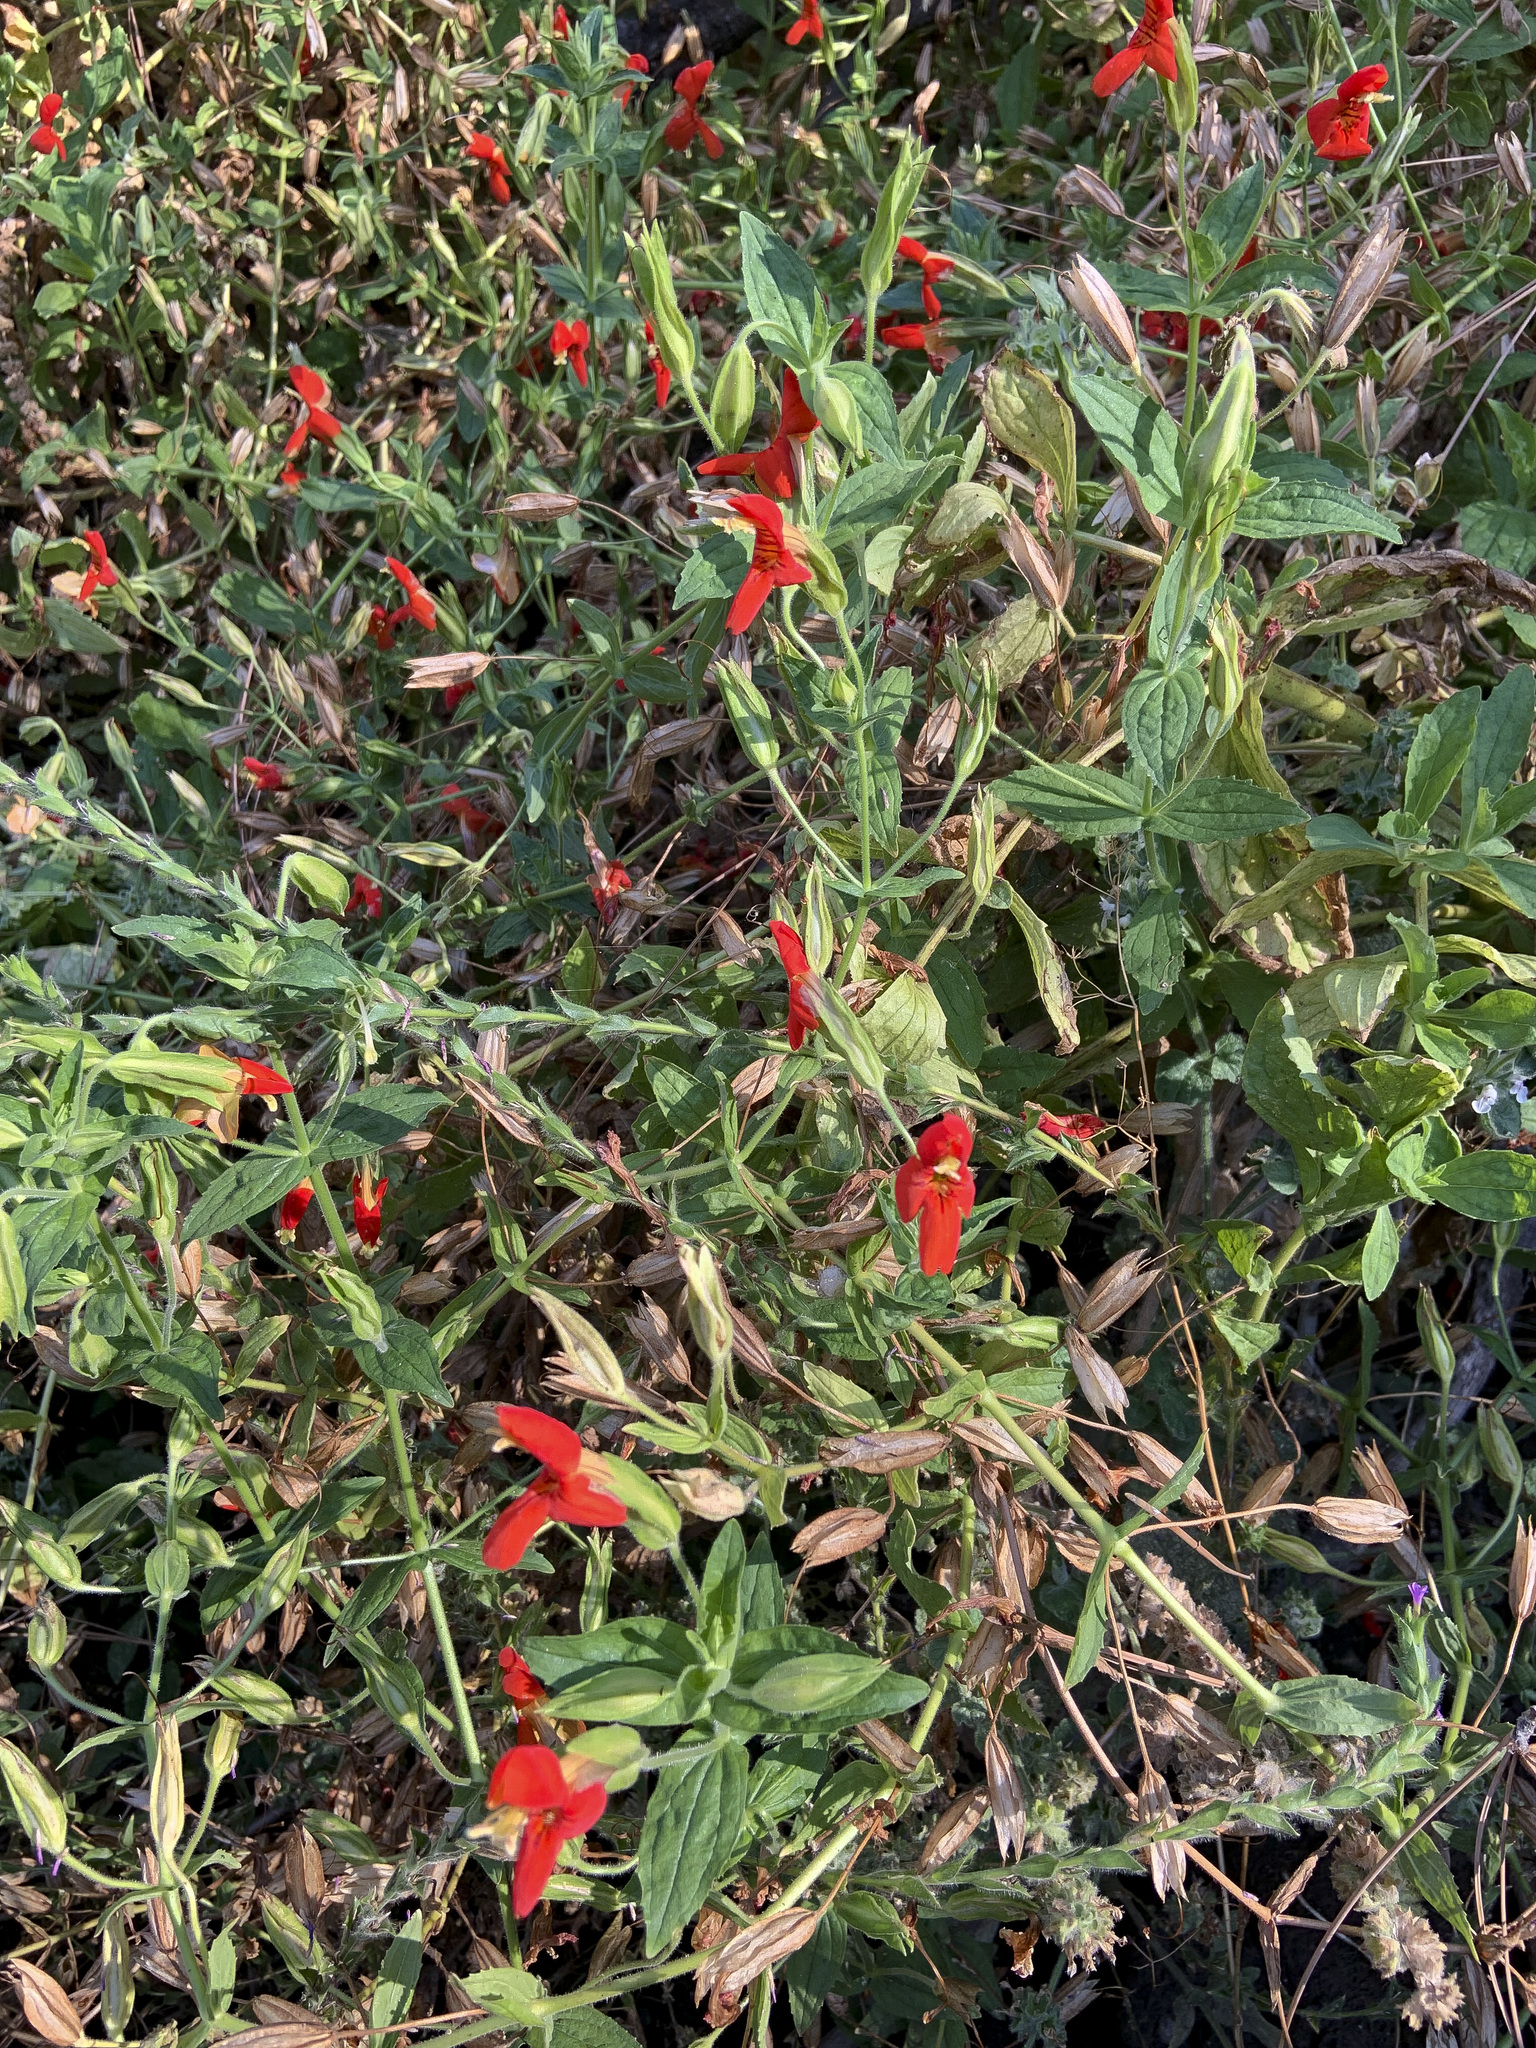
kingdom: Plantae
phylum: Tracheophyta
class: Magnoliopsida
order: Lamiales
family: Phrymaceae
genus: Erythranthe
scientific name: Erythranthe cardinalis
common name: Scarlet monkey-flower
